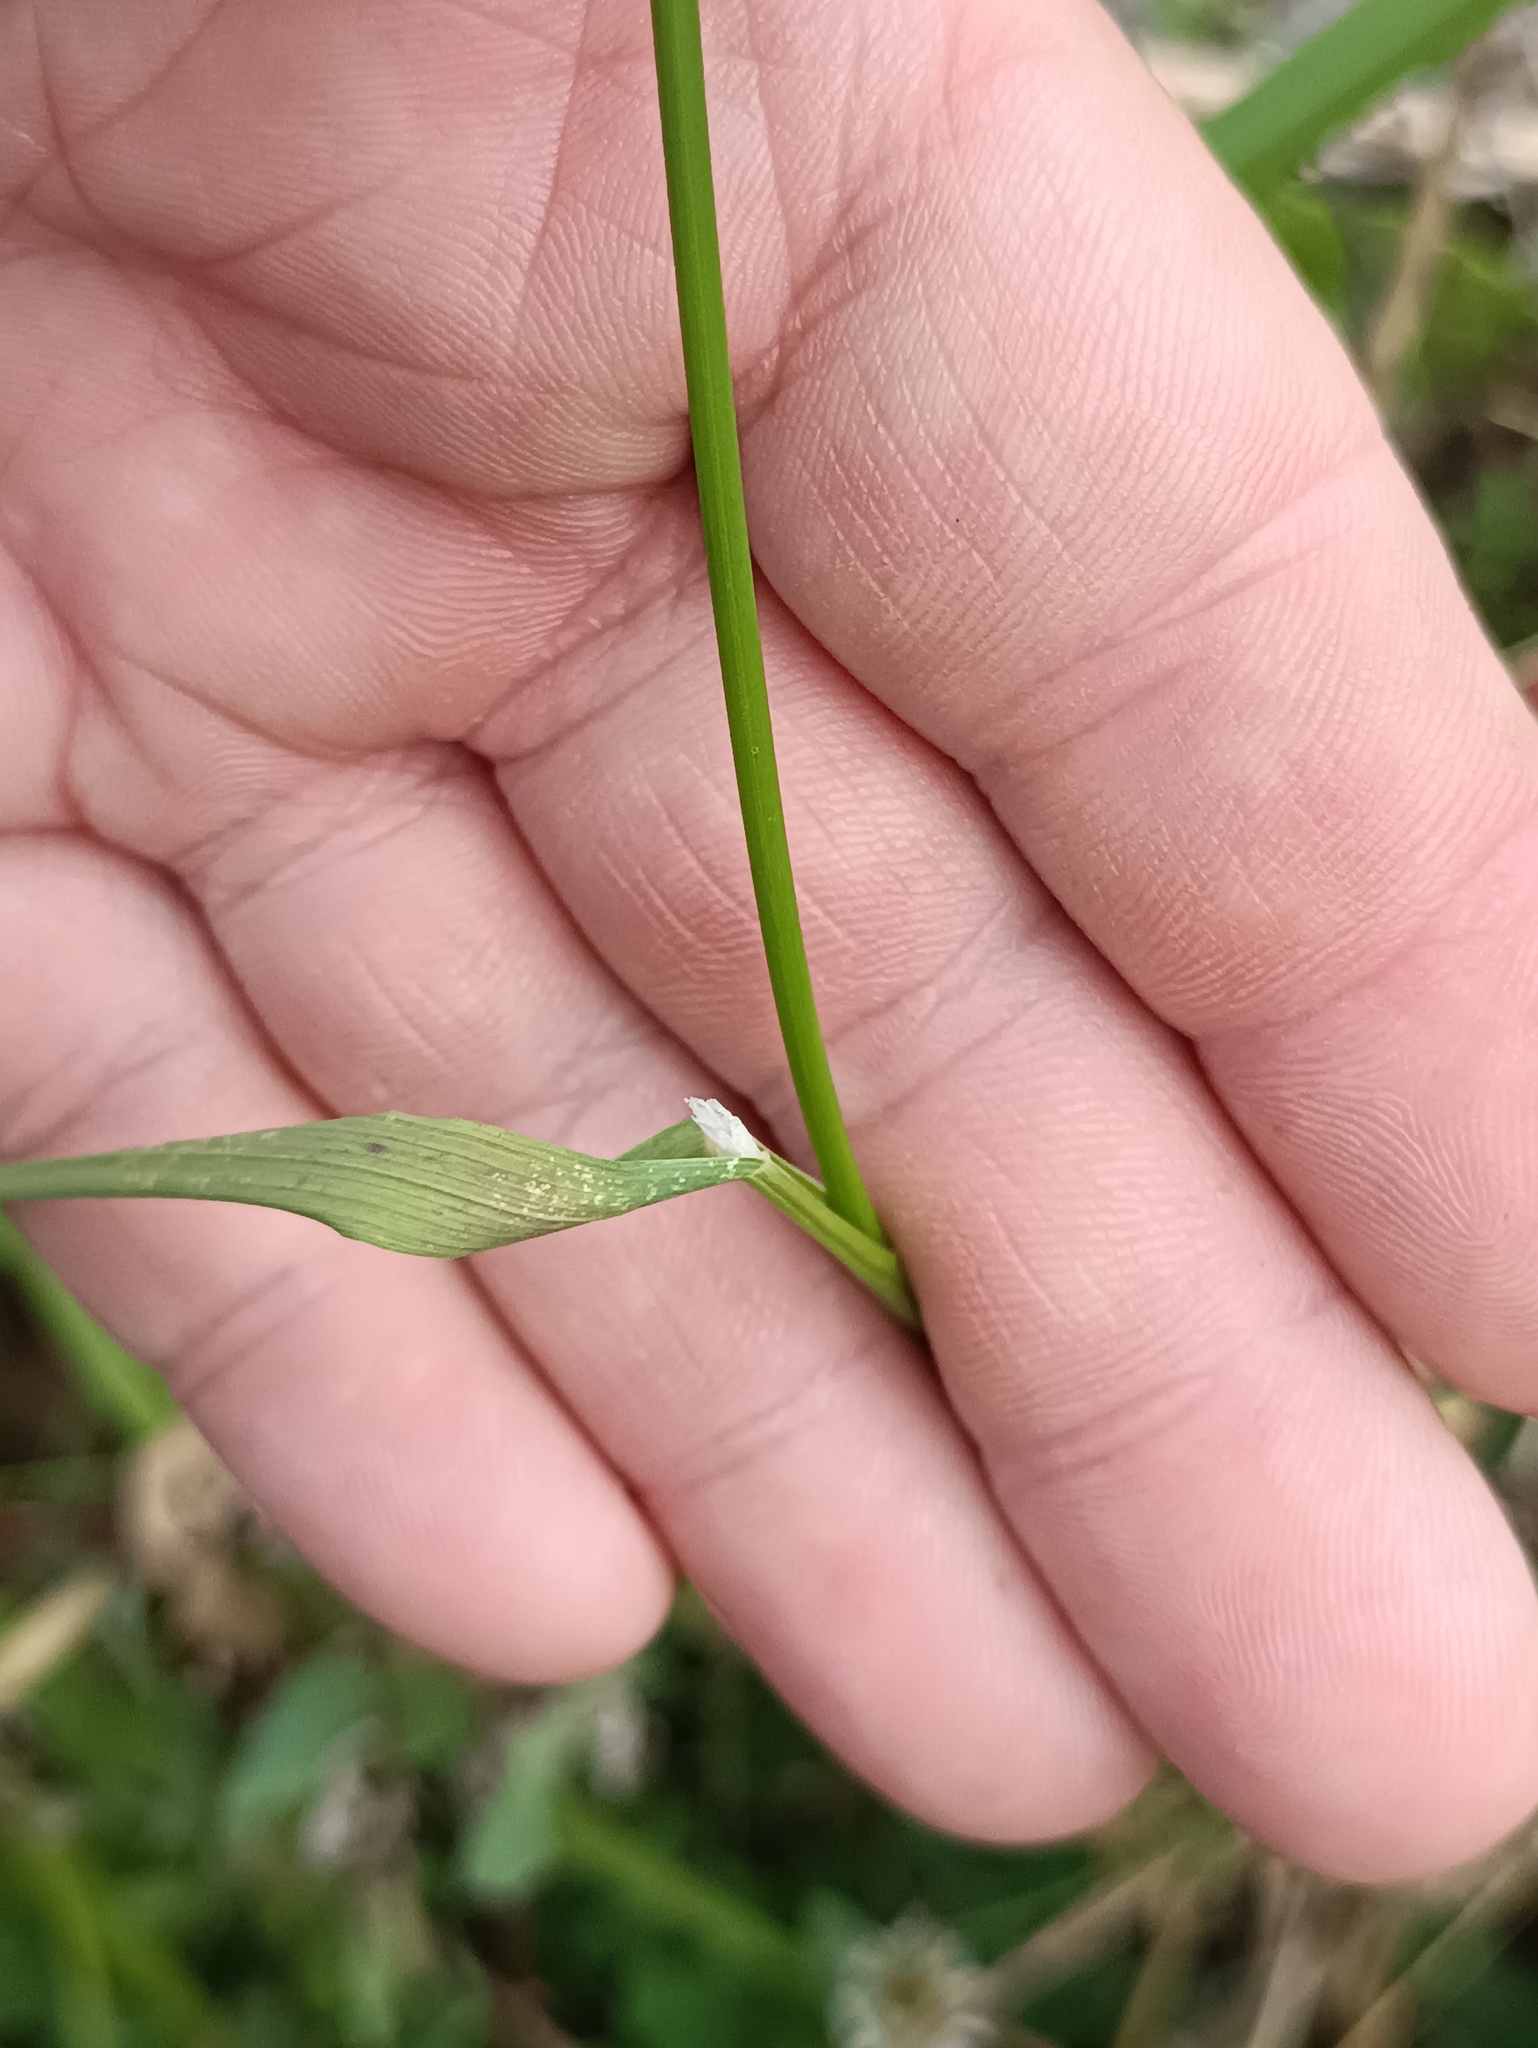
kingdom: Plantae
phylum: Tracheophyta
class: Liliopsida
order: Poales
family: Poaceae
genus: Agrostis
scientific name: Agrostis gigantea
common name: Black bent
